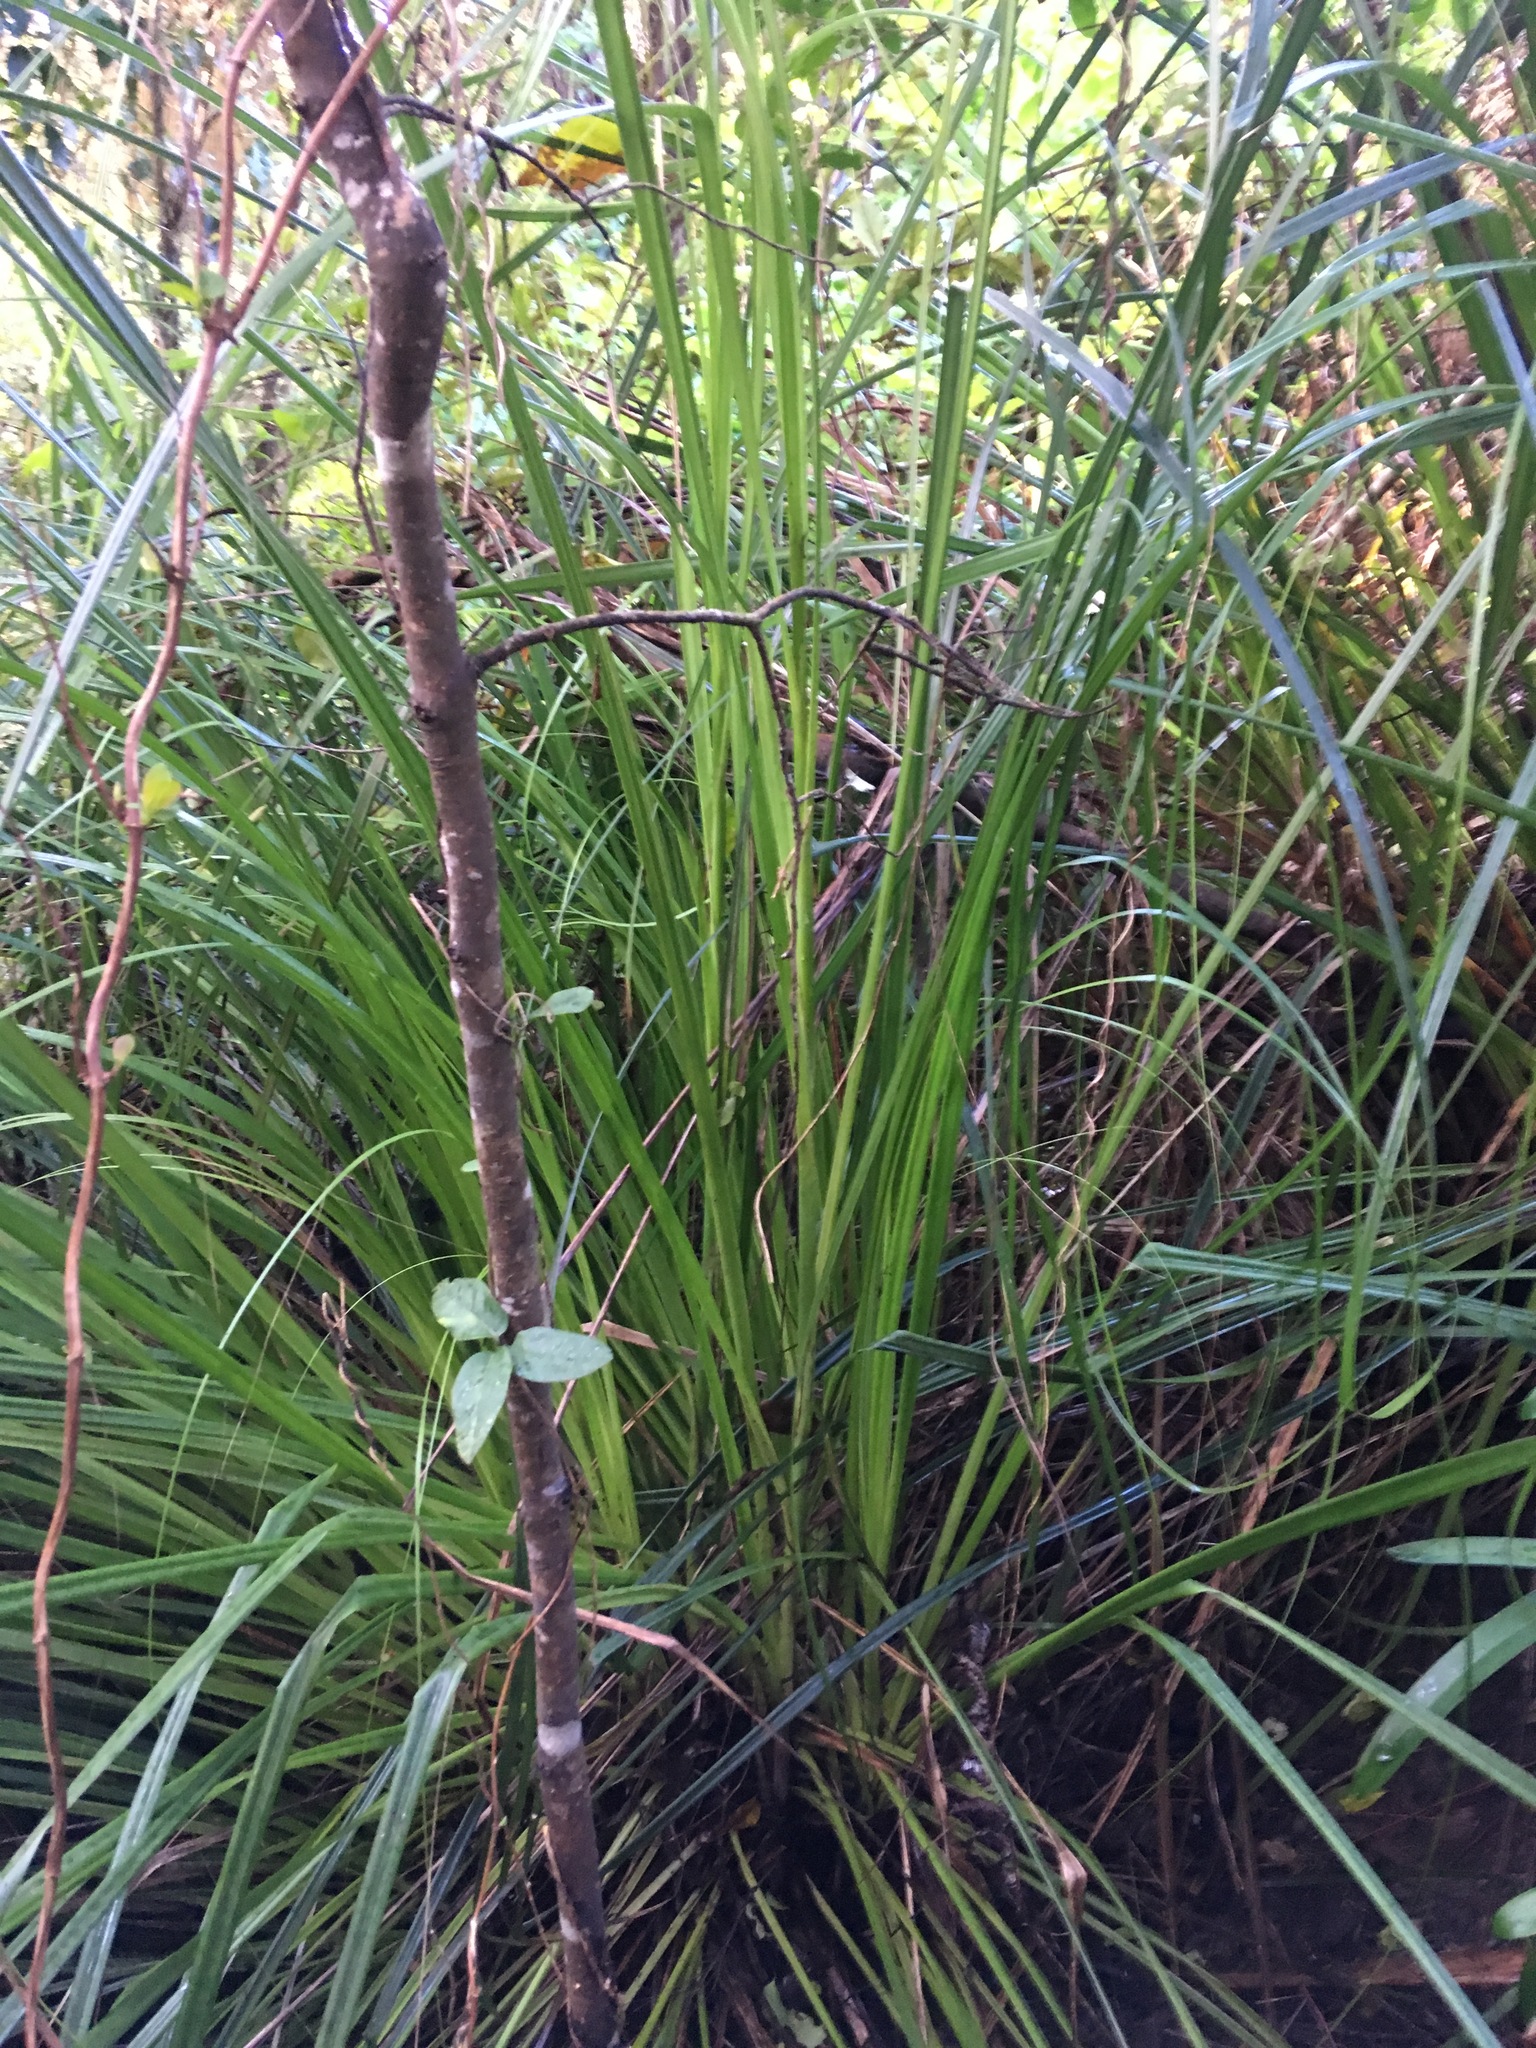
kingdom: Plantae
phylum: Tracheophyta
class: Magnoliopsida
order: Dipsacales
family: Caprifoliaceae
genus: Lonicera
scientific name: Lonicera japonica
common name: Japanese honeysuckle
